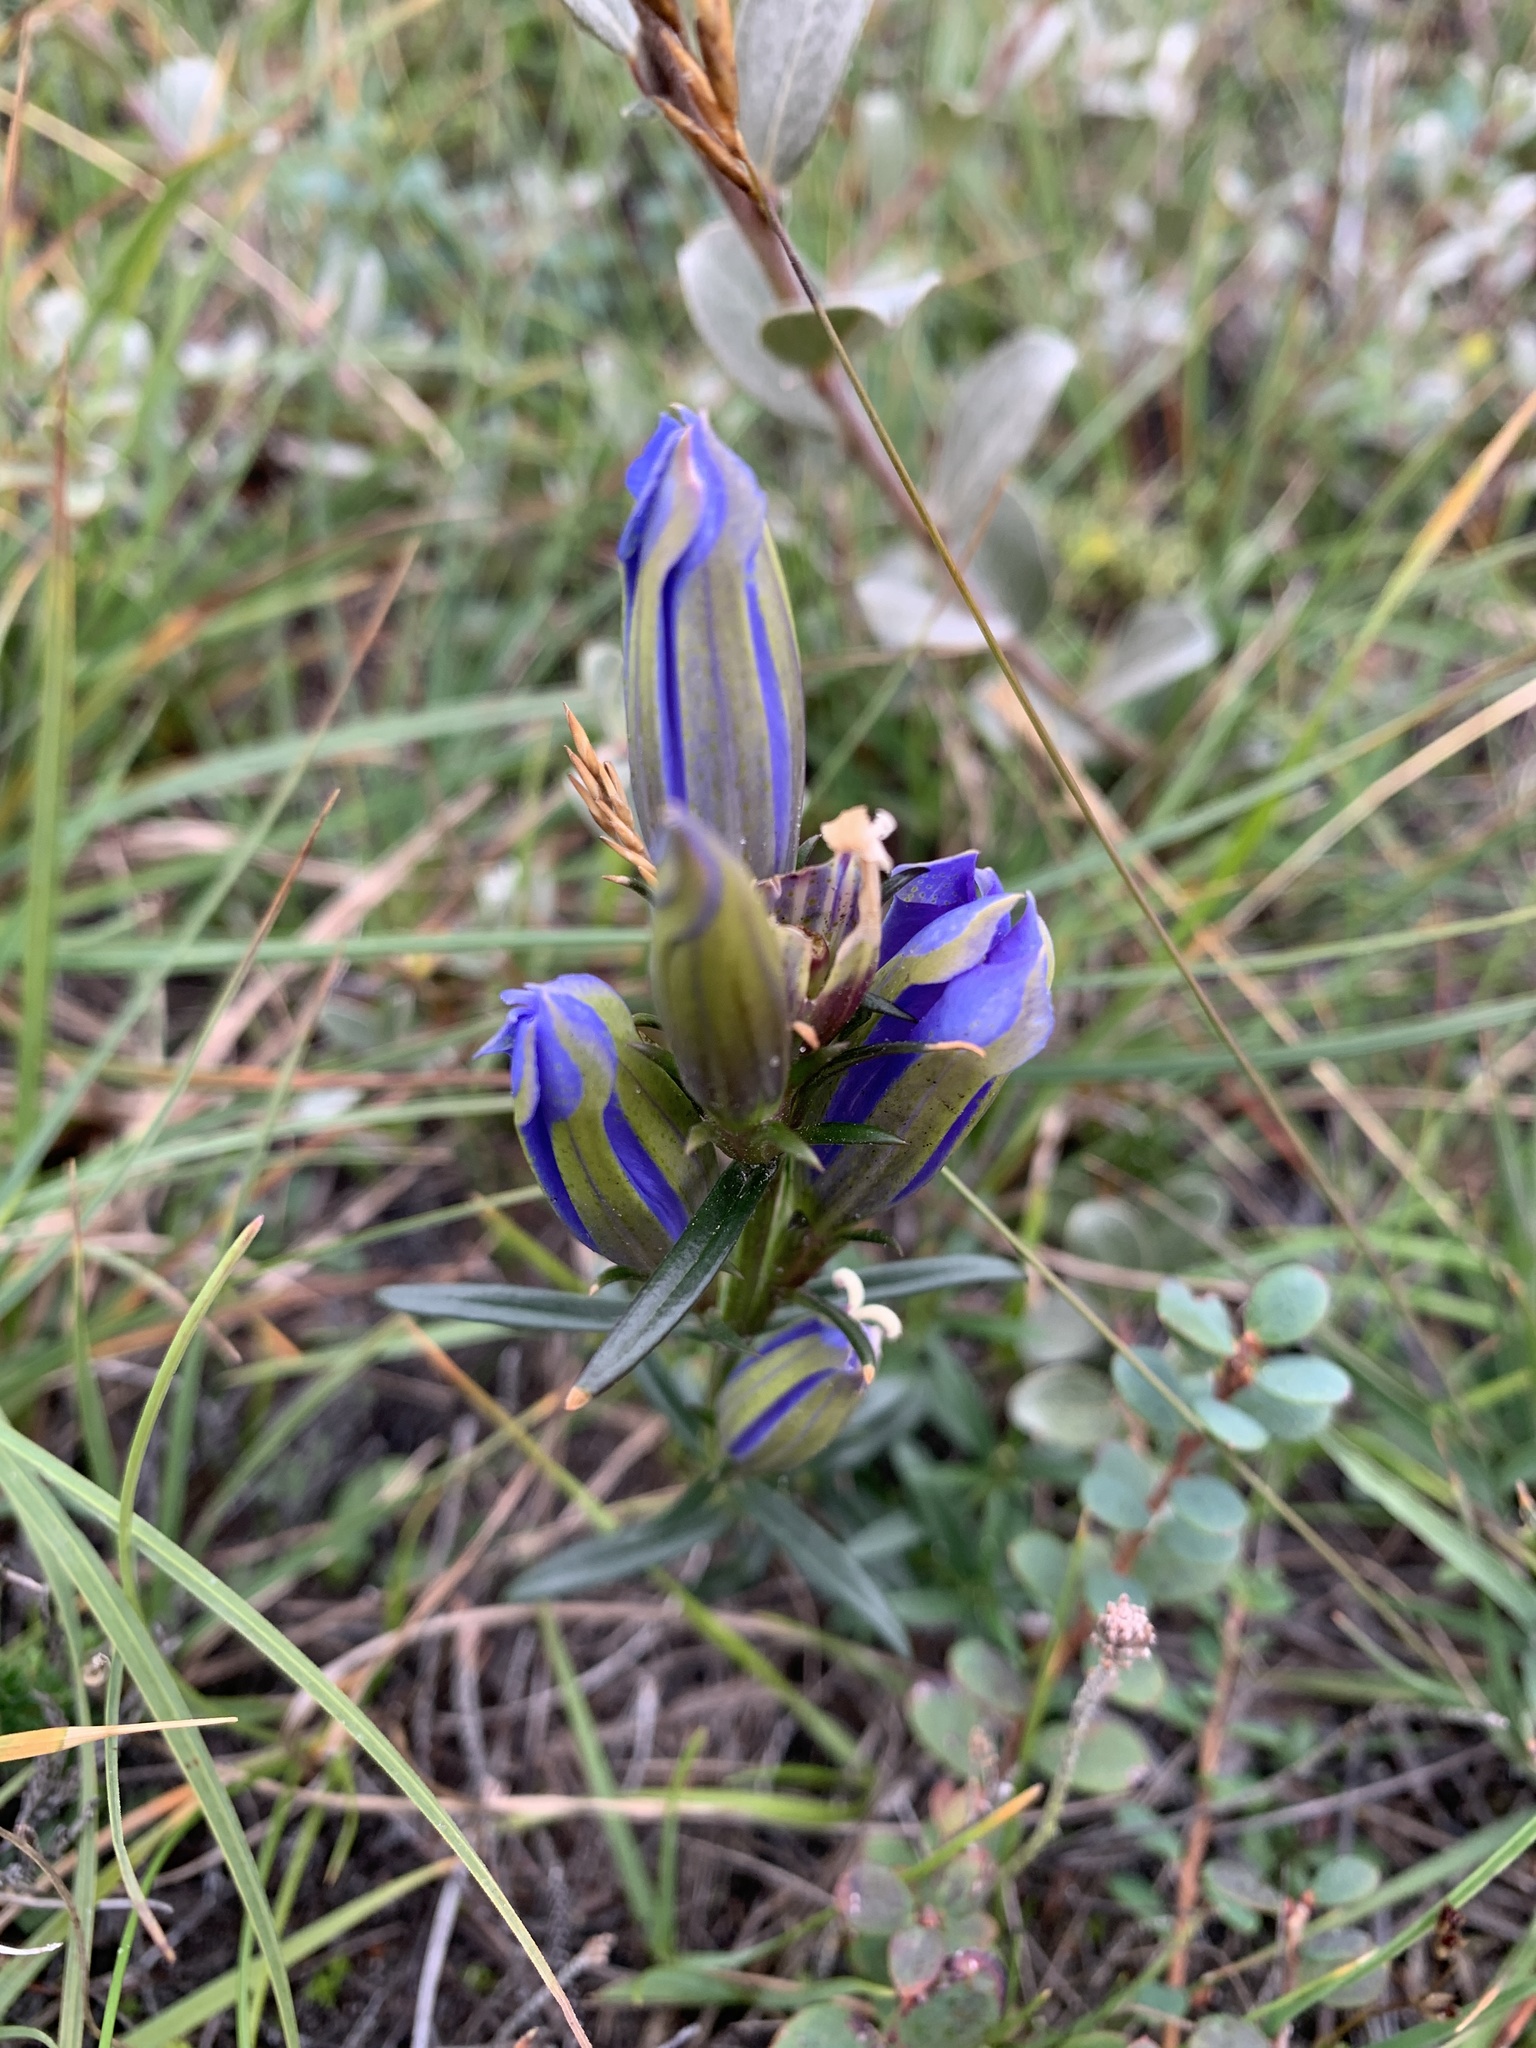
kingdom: Plantae
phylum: Tracheophyta
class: Magnoliopsida
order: Gentianales
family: Gentianaceae
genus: Gentiana
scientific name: Gentiana pneumonanthe
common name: Marsh gentian
